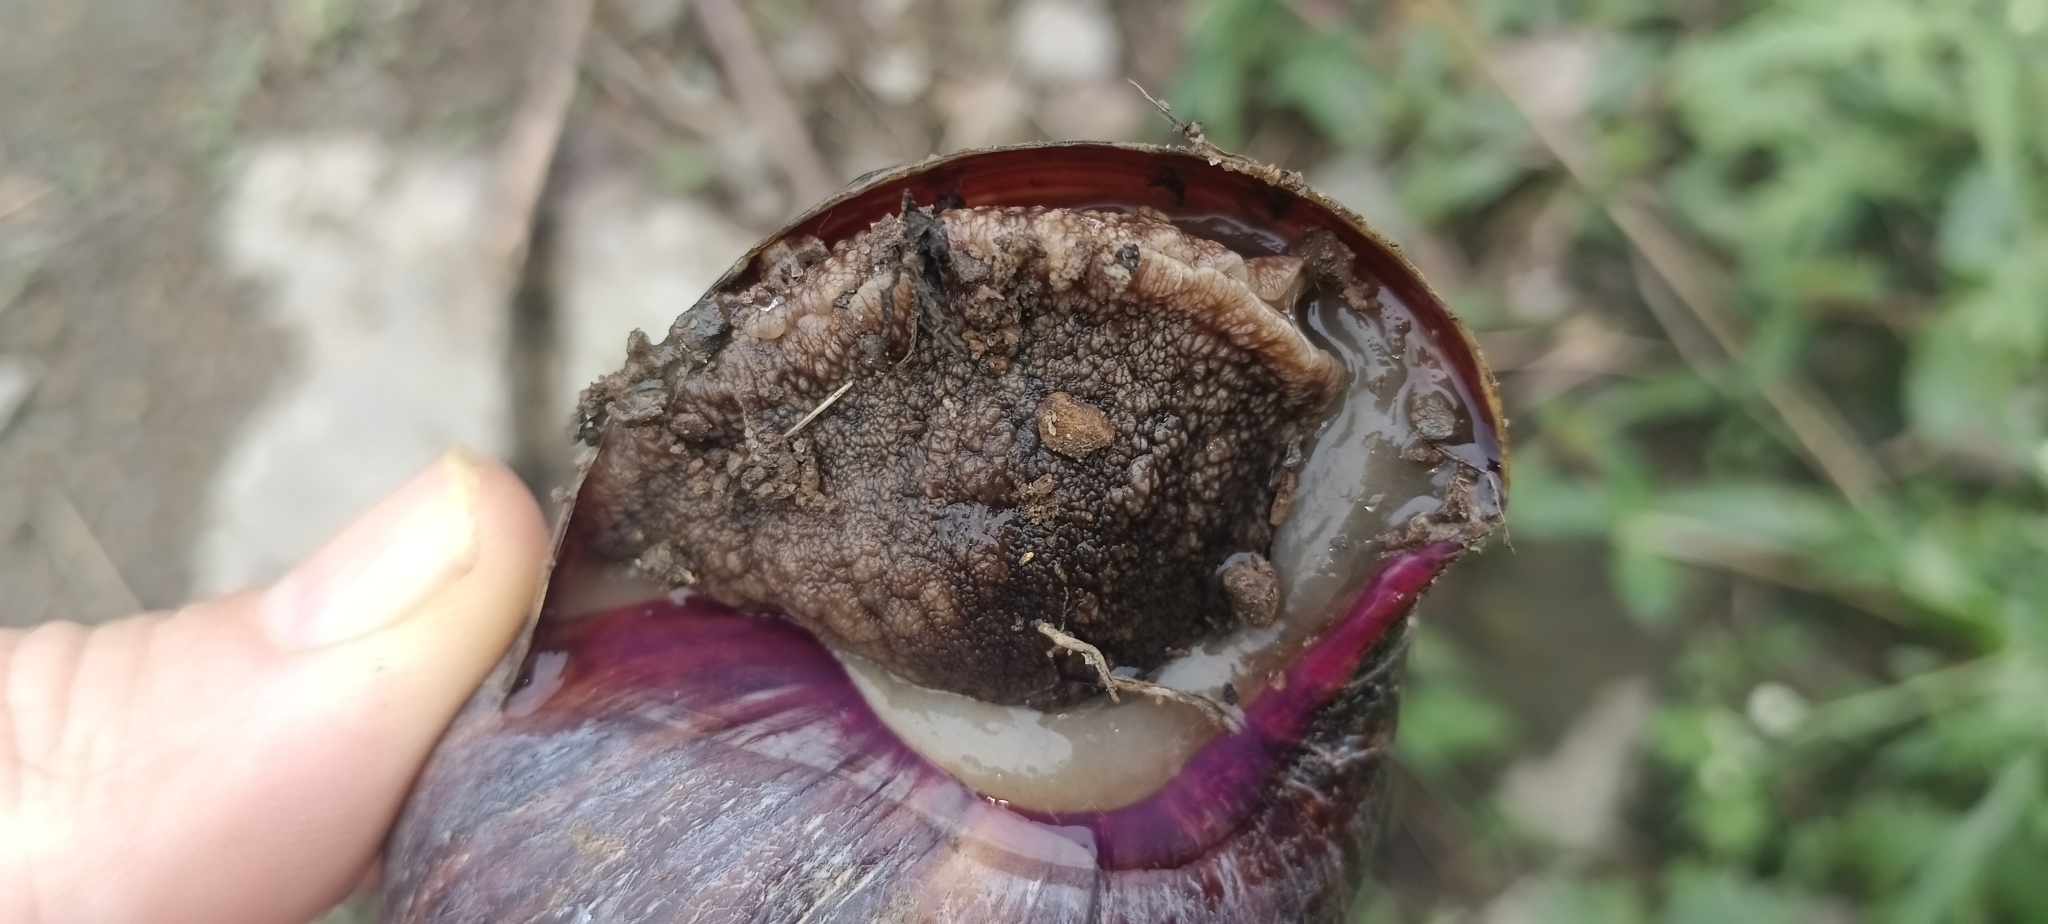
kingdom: Animalia
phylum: Mollusca
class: Gastropoda
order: Stylommatophora
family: Achatinidae
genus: Lissachatina
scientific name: Lissachatina immaculata
